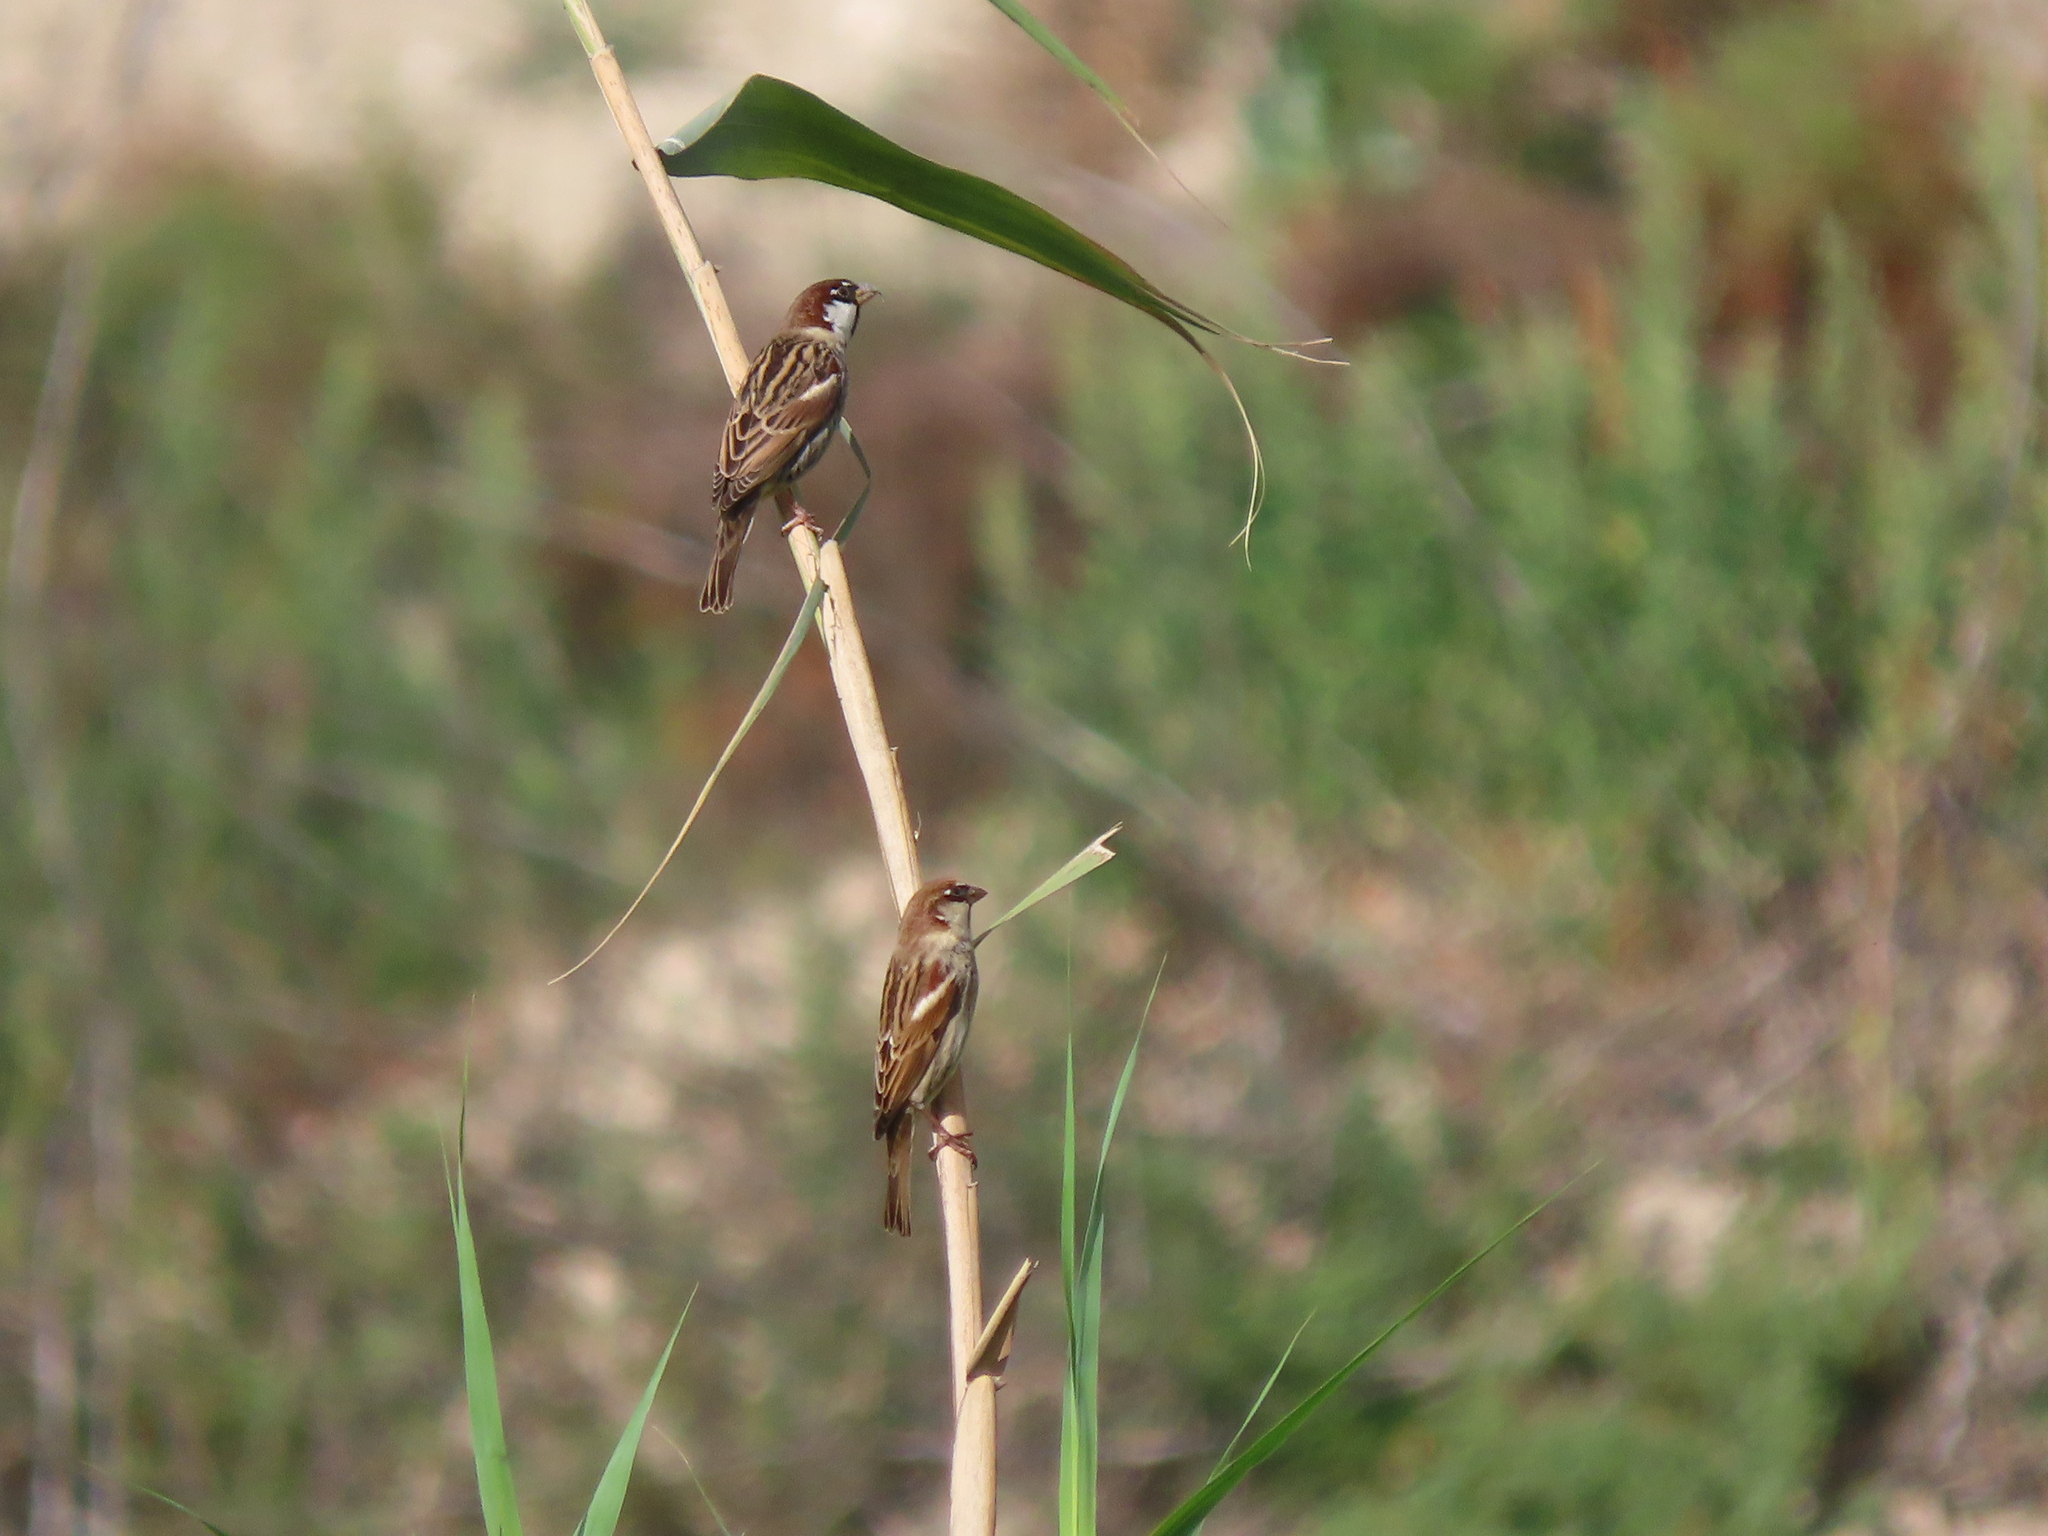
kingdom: Animalia
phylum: Chordata
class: Aves
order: Passeriformes
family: Passeridae
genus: Passer
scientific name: Passer hispaniolensis
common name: Spanish sparrow
